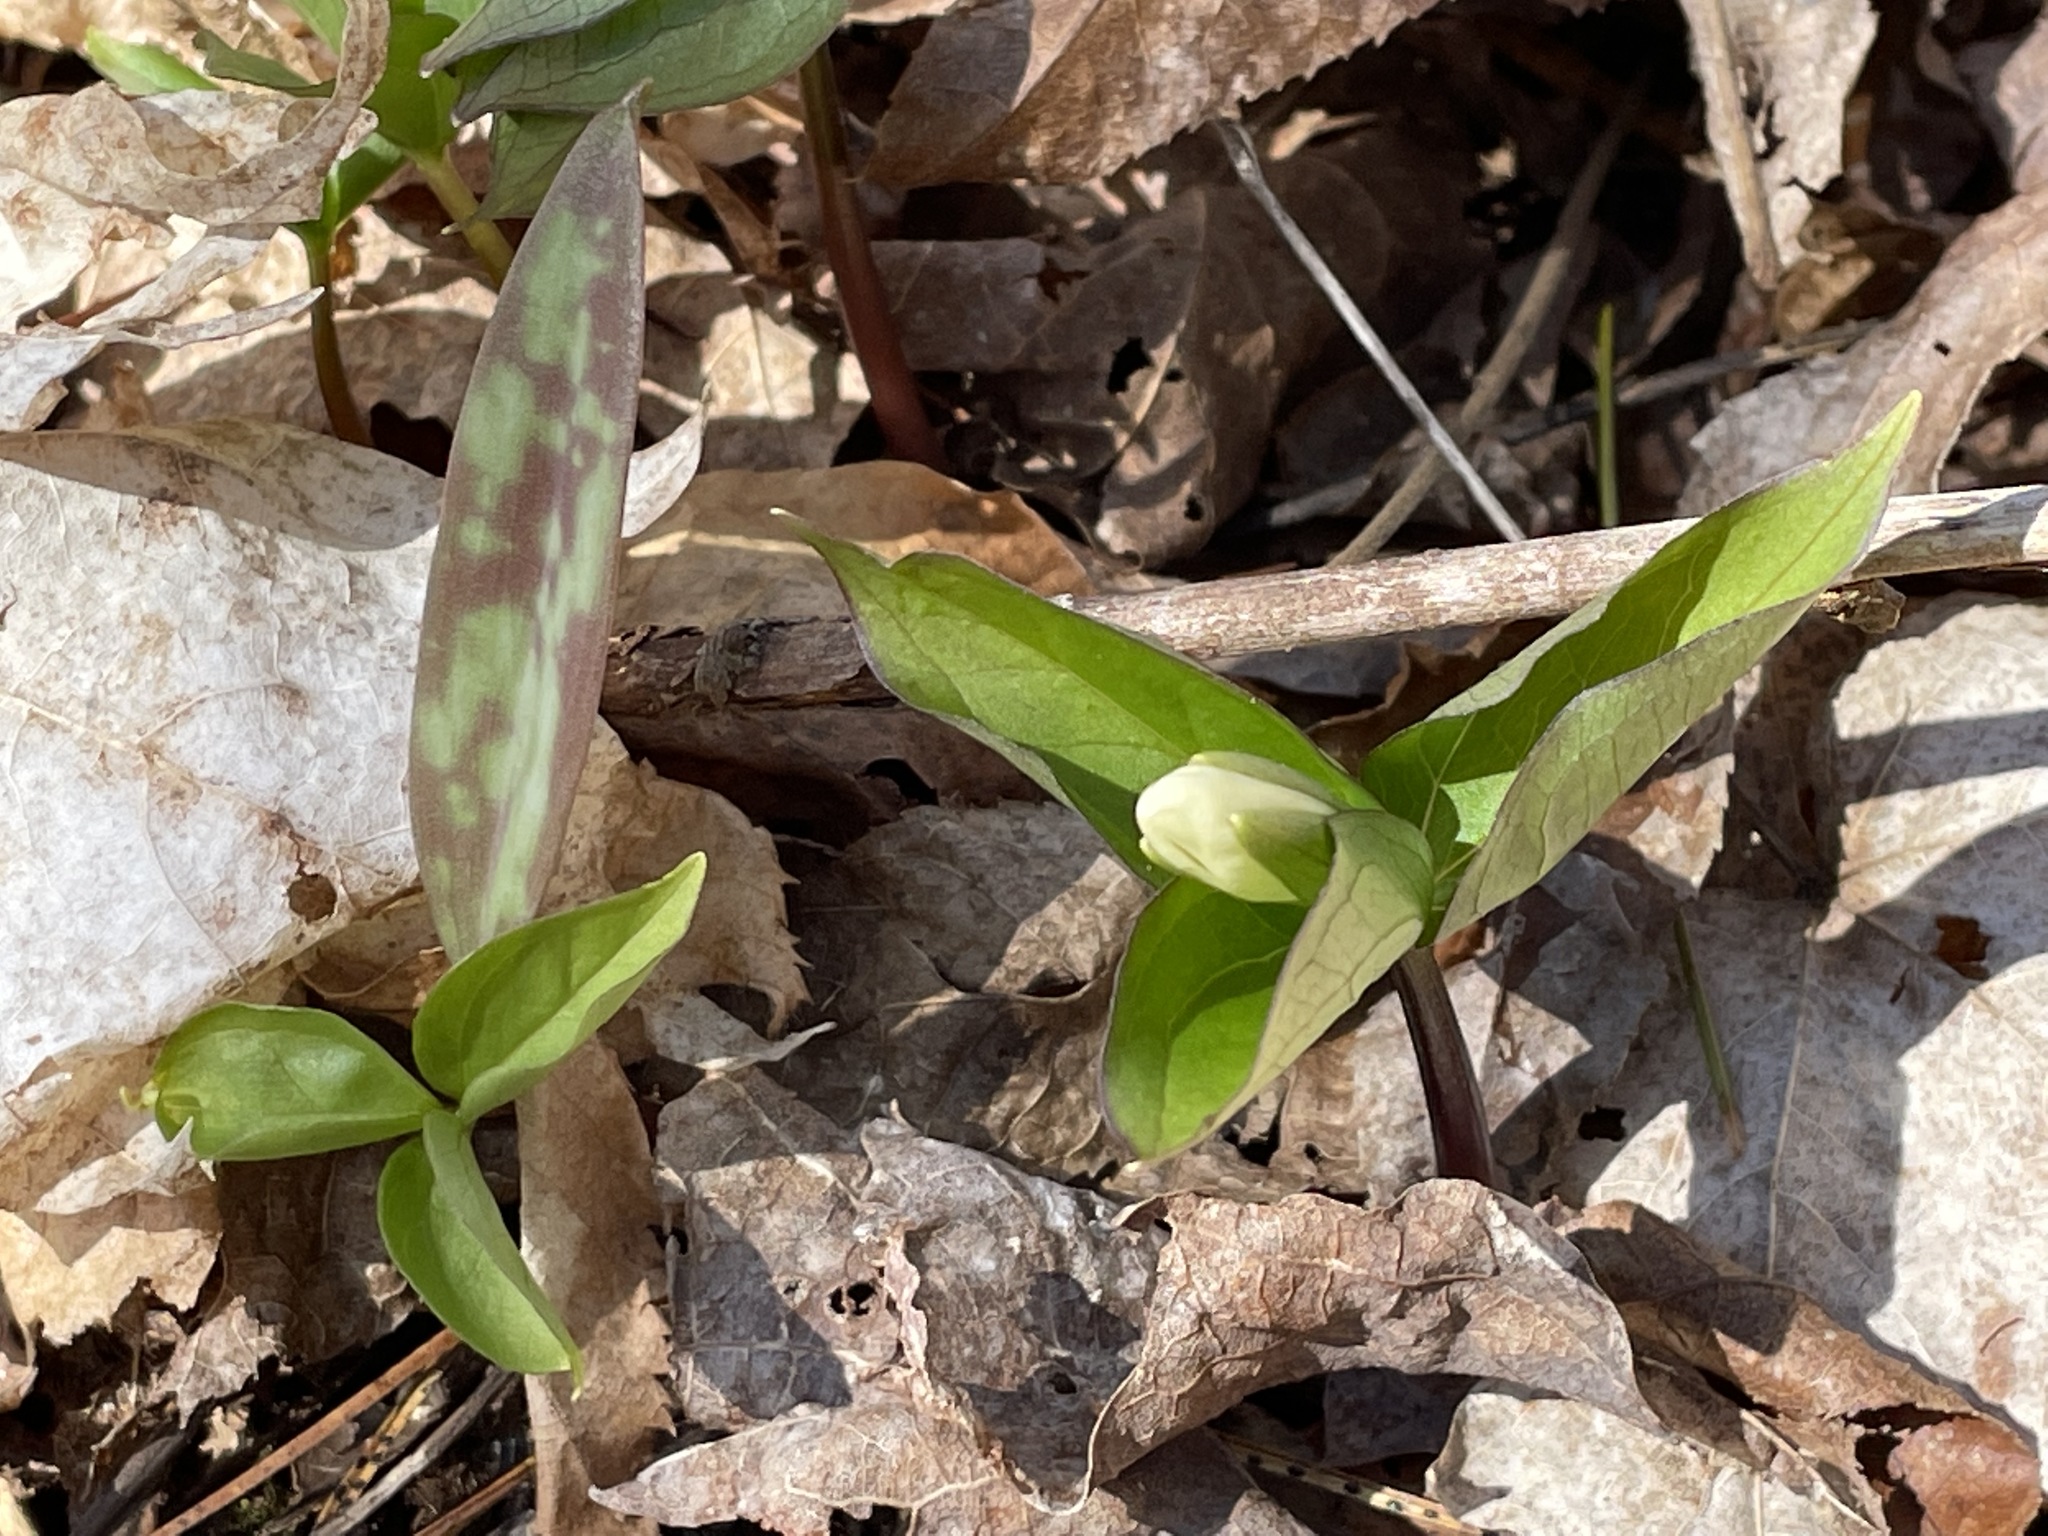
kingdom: Plantae
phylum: Tracheophyta
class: Liliopsida
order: Liliales
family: Melanthiaceae
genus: Trillium
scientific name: Trillium grandiflorum
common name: Great white trillium
